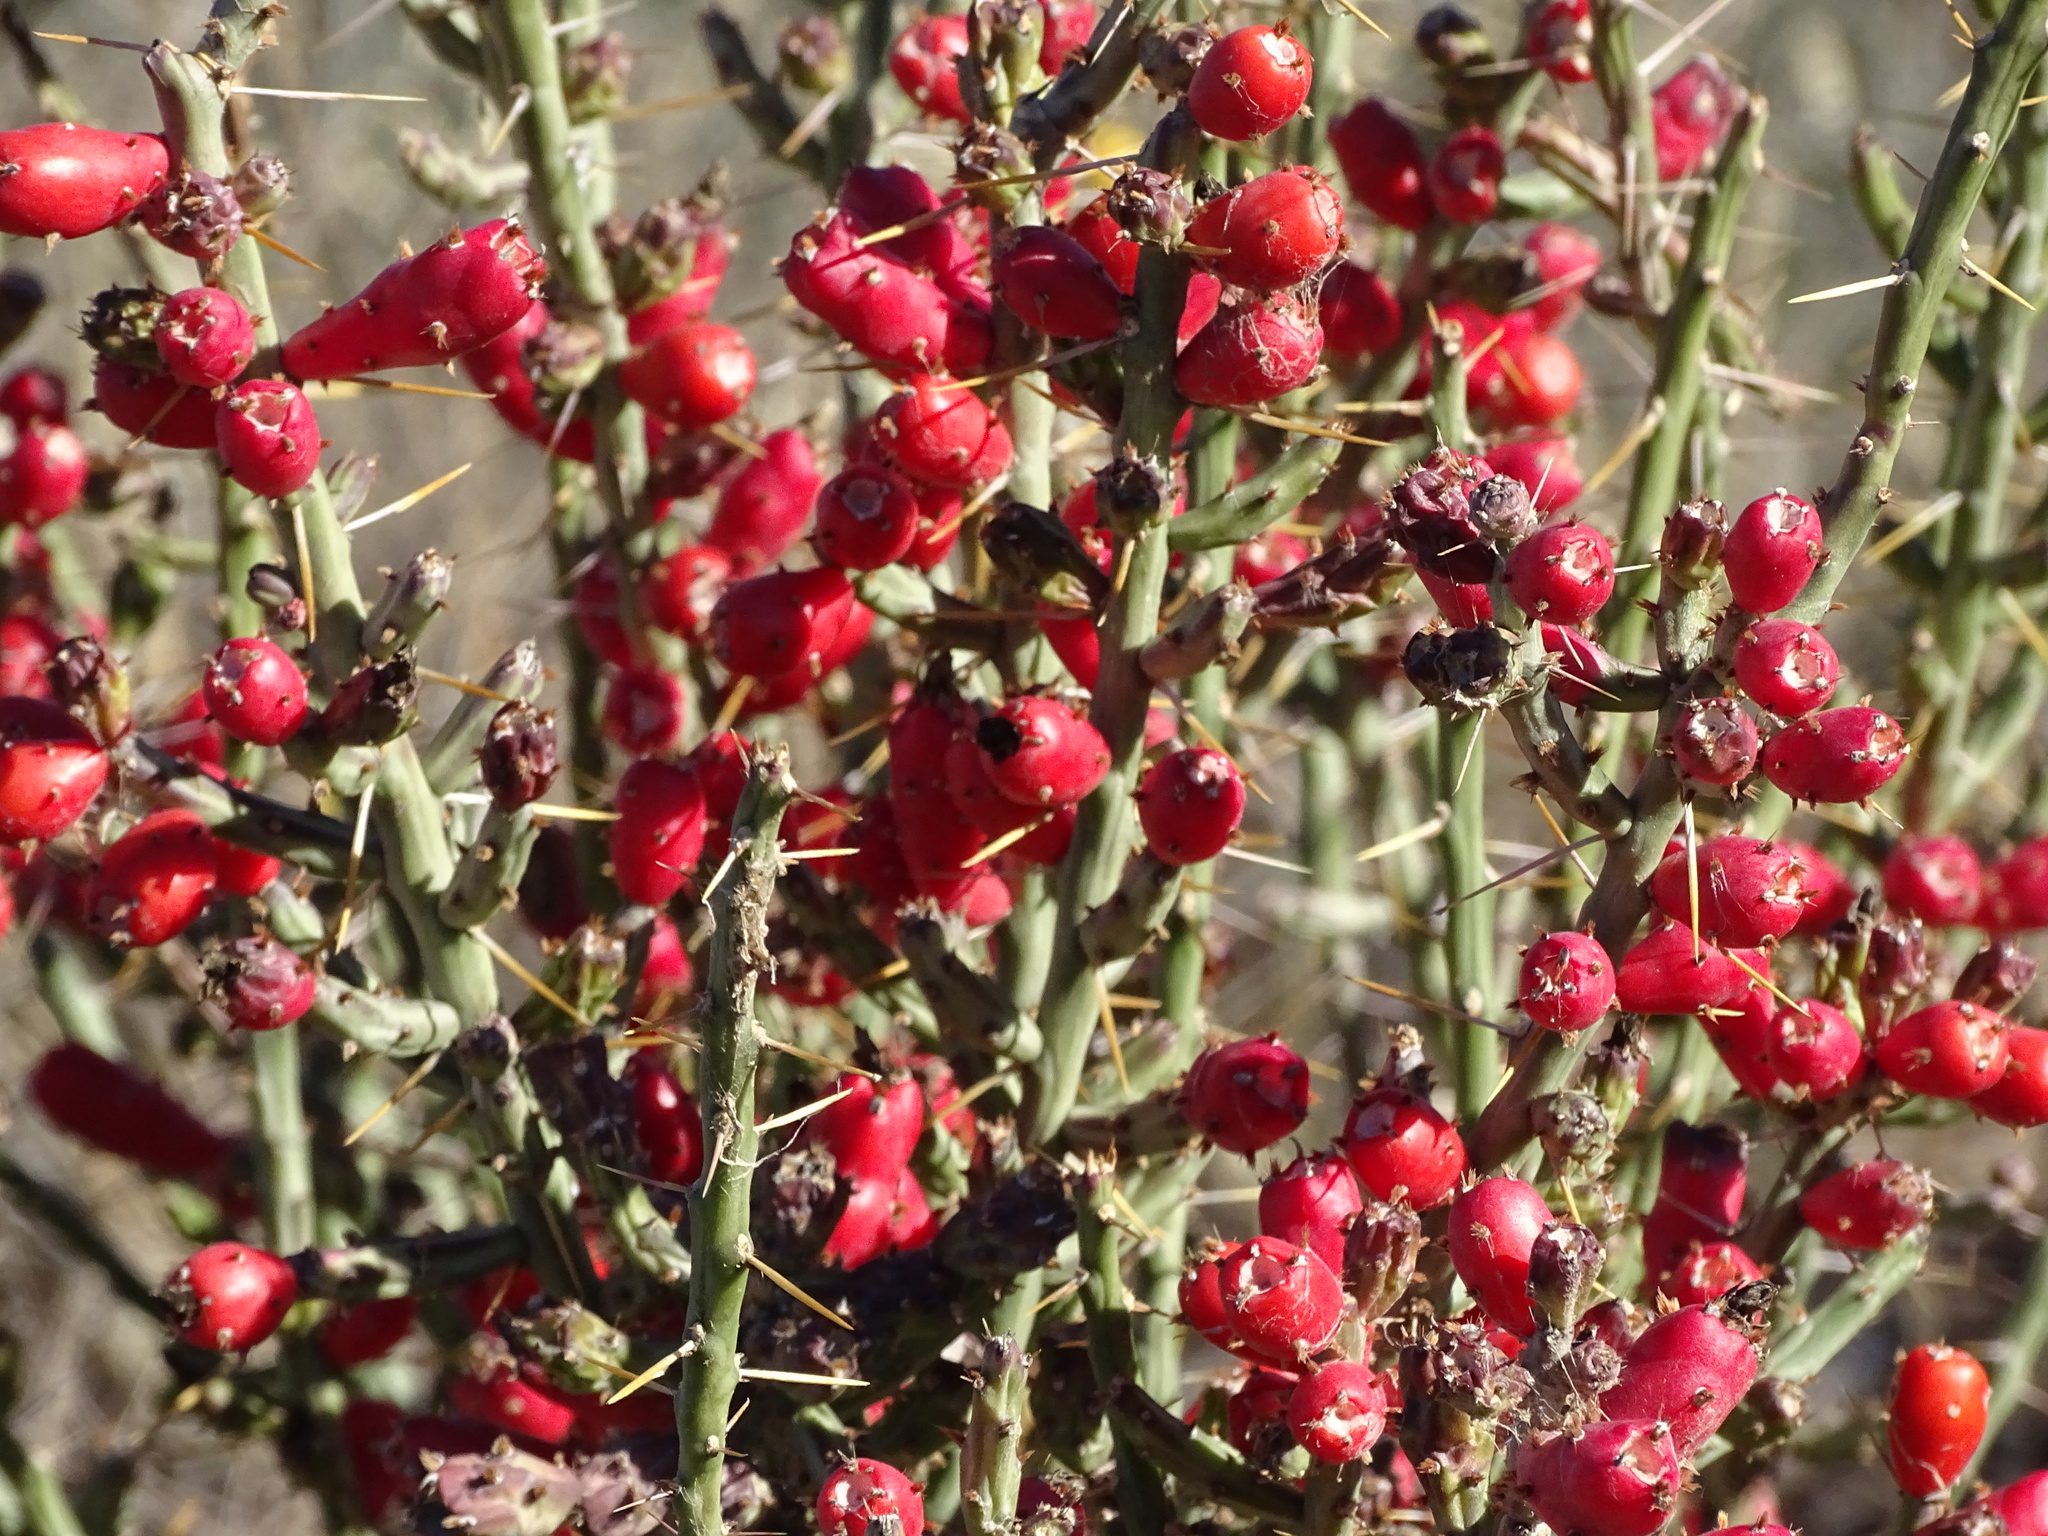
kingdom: Plantae
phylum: Tracheophyta
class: Magnoliopsida
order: Caryophyllales
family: Cactaceae
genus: Cylindropuntia
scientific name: Cylindropuntia leptocaulis
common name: Christmas cactus
